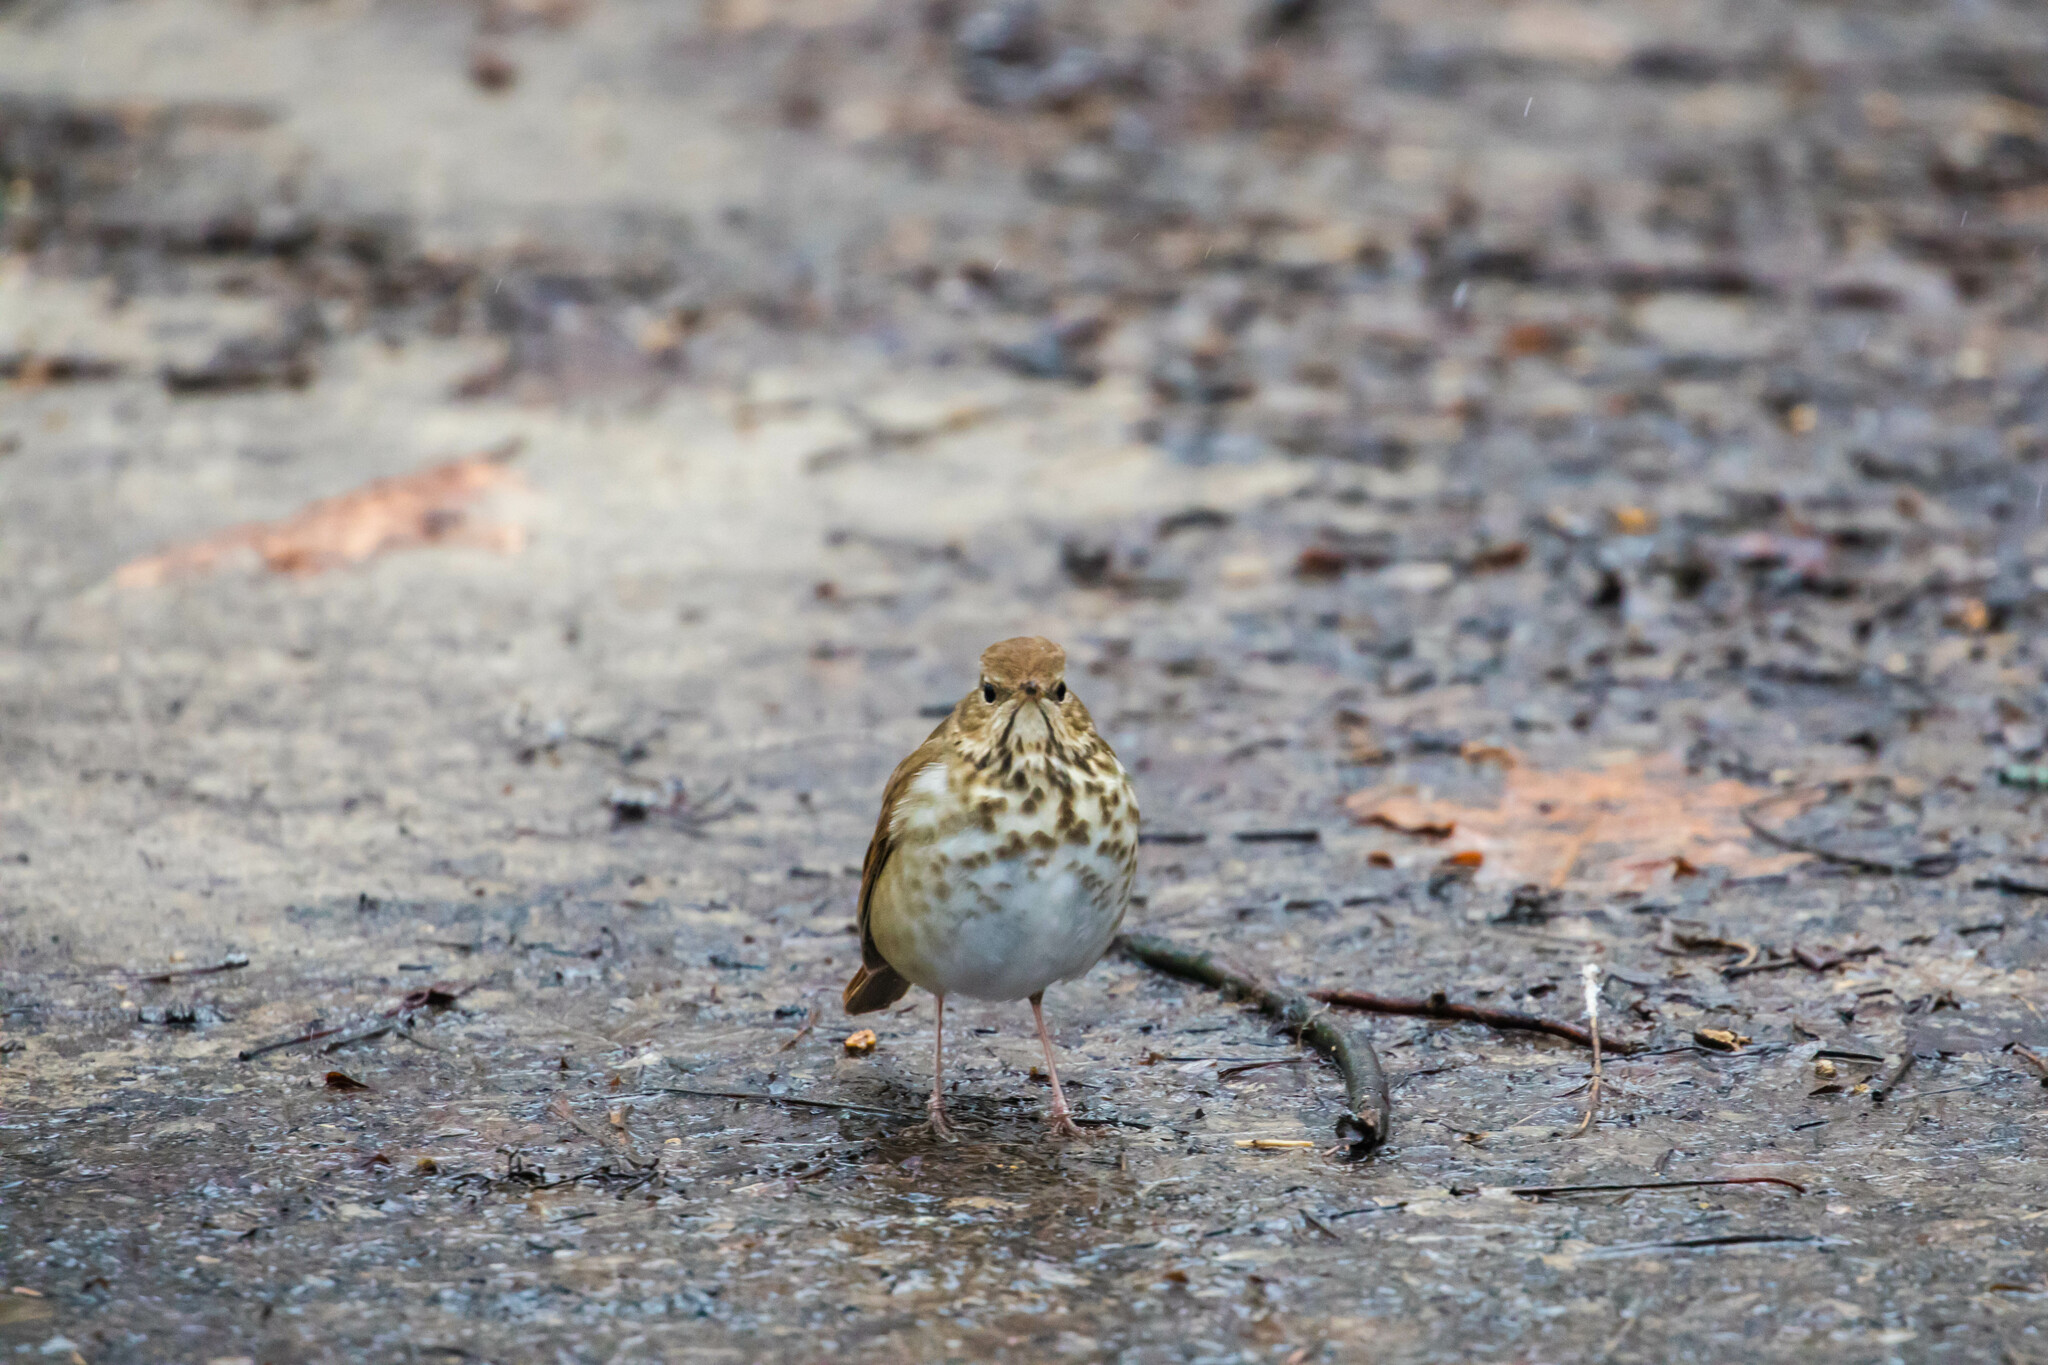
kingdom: Animalia
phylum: Chordata
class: Aves
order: Passeriformes
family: Turdidae
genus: Catharus
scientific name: Catharus guttatus
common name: Hermit thrush
